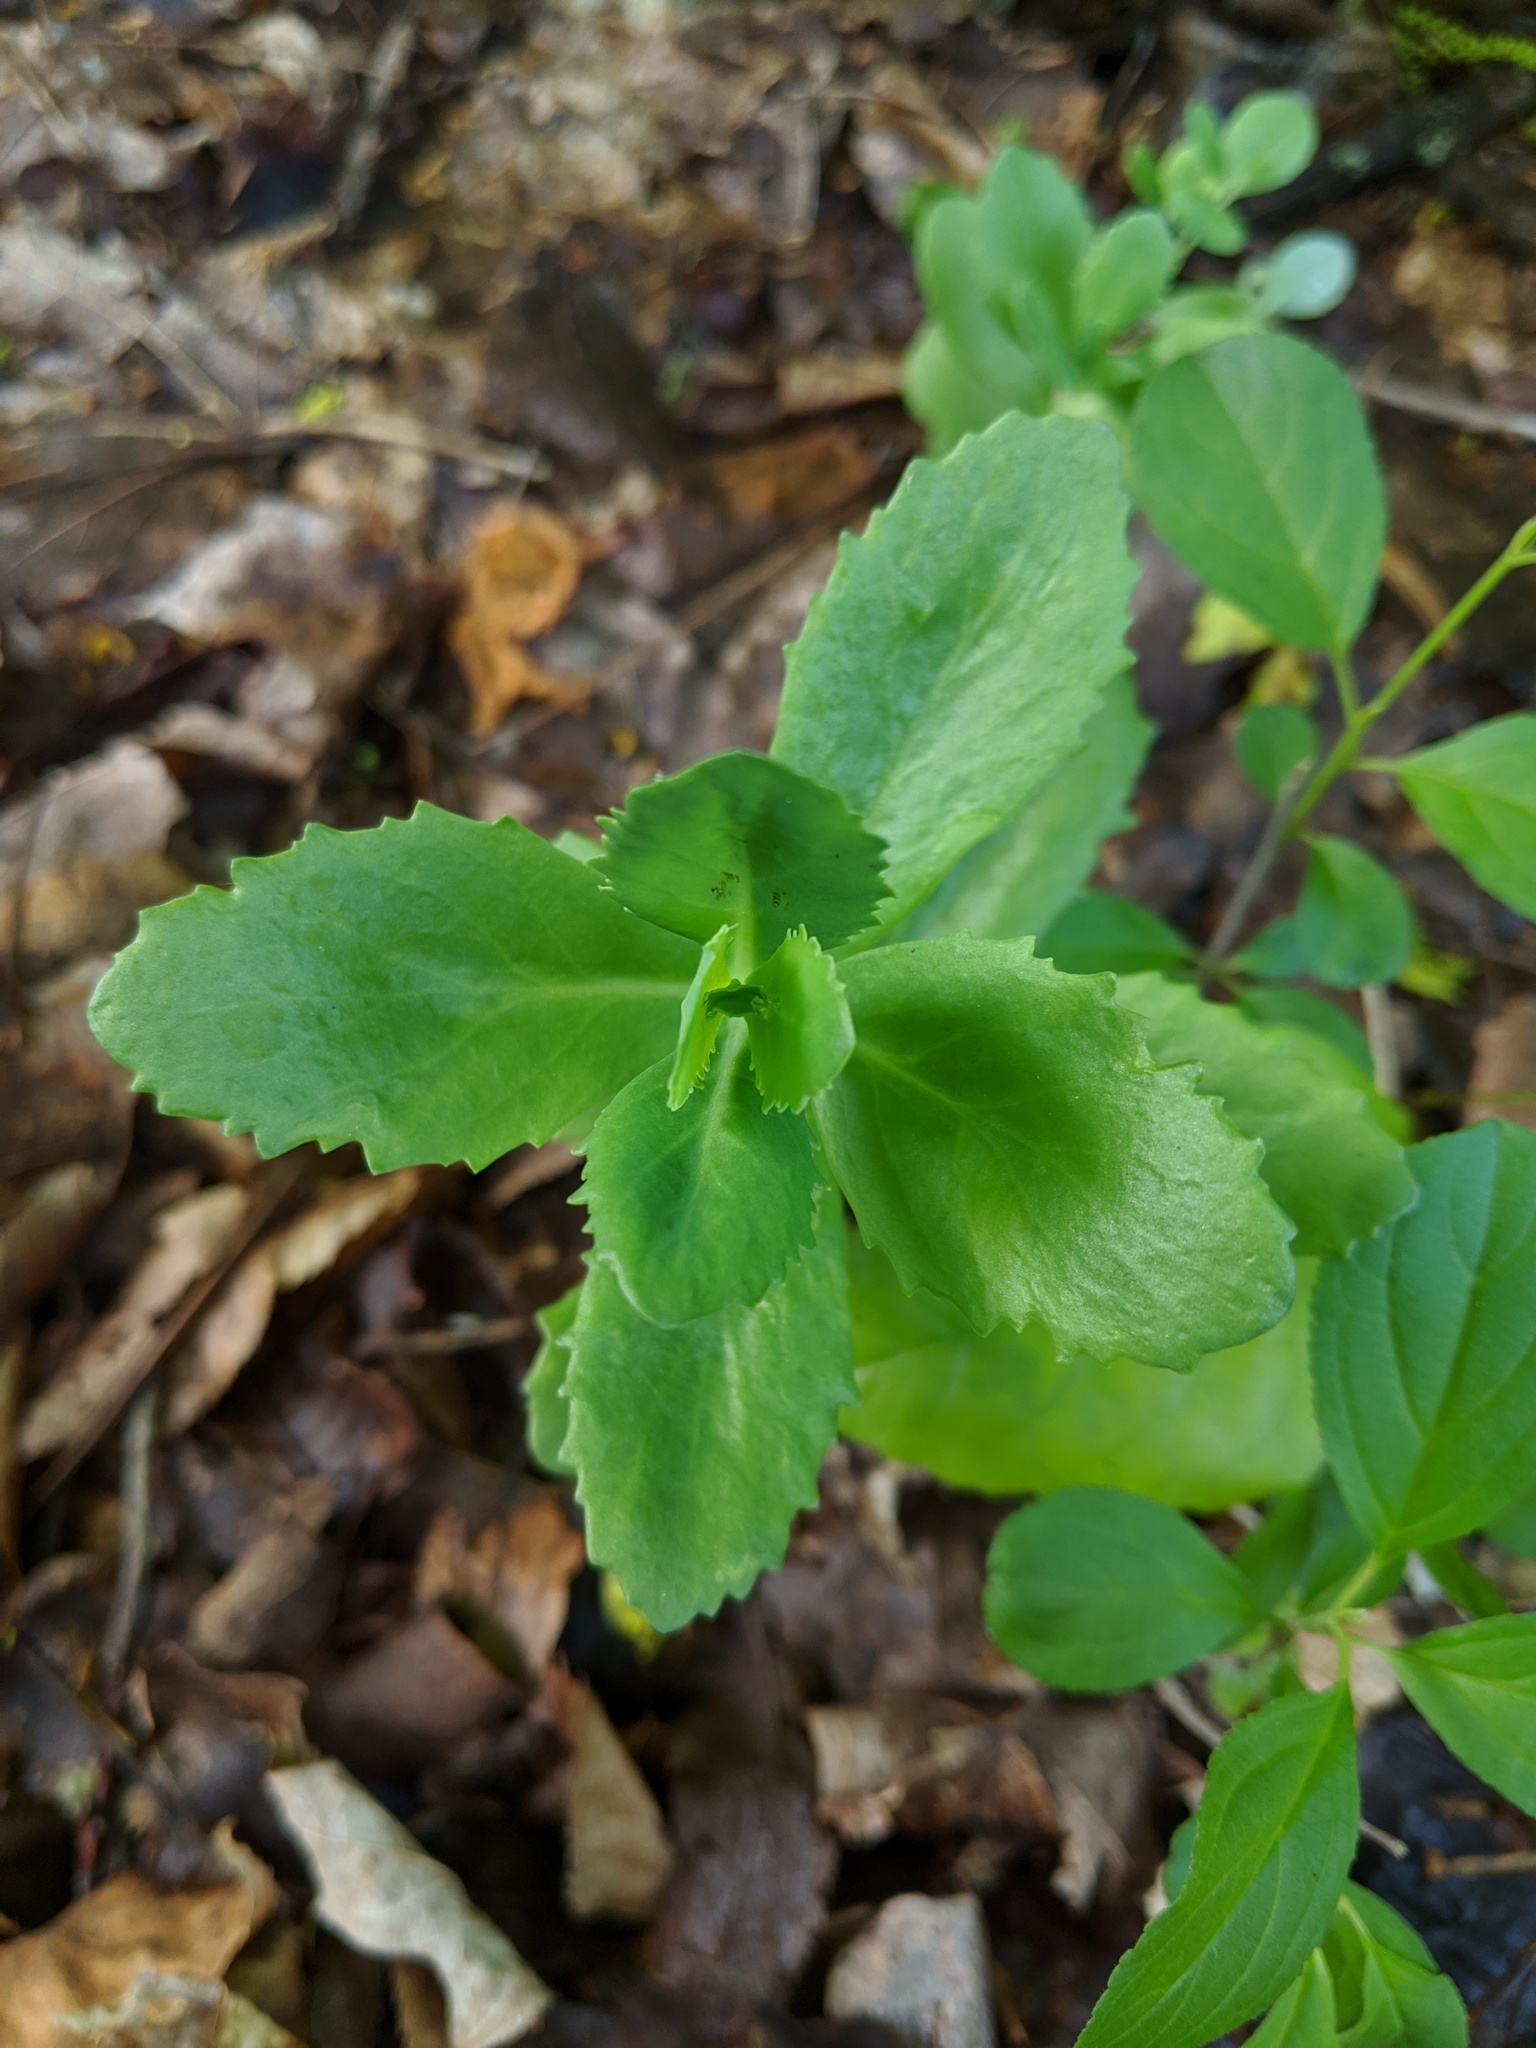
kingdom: Plantae
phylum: Tracheophyta
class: Magnoliopsida
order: Saxifragales
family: Crassulaceae
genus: Hylotelephium
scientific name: Hylotelephium telephium
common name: Live-forever
